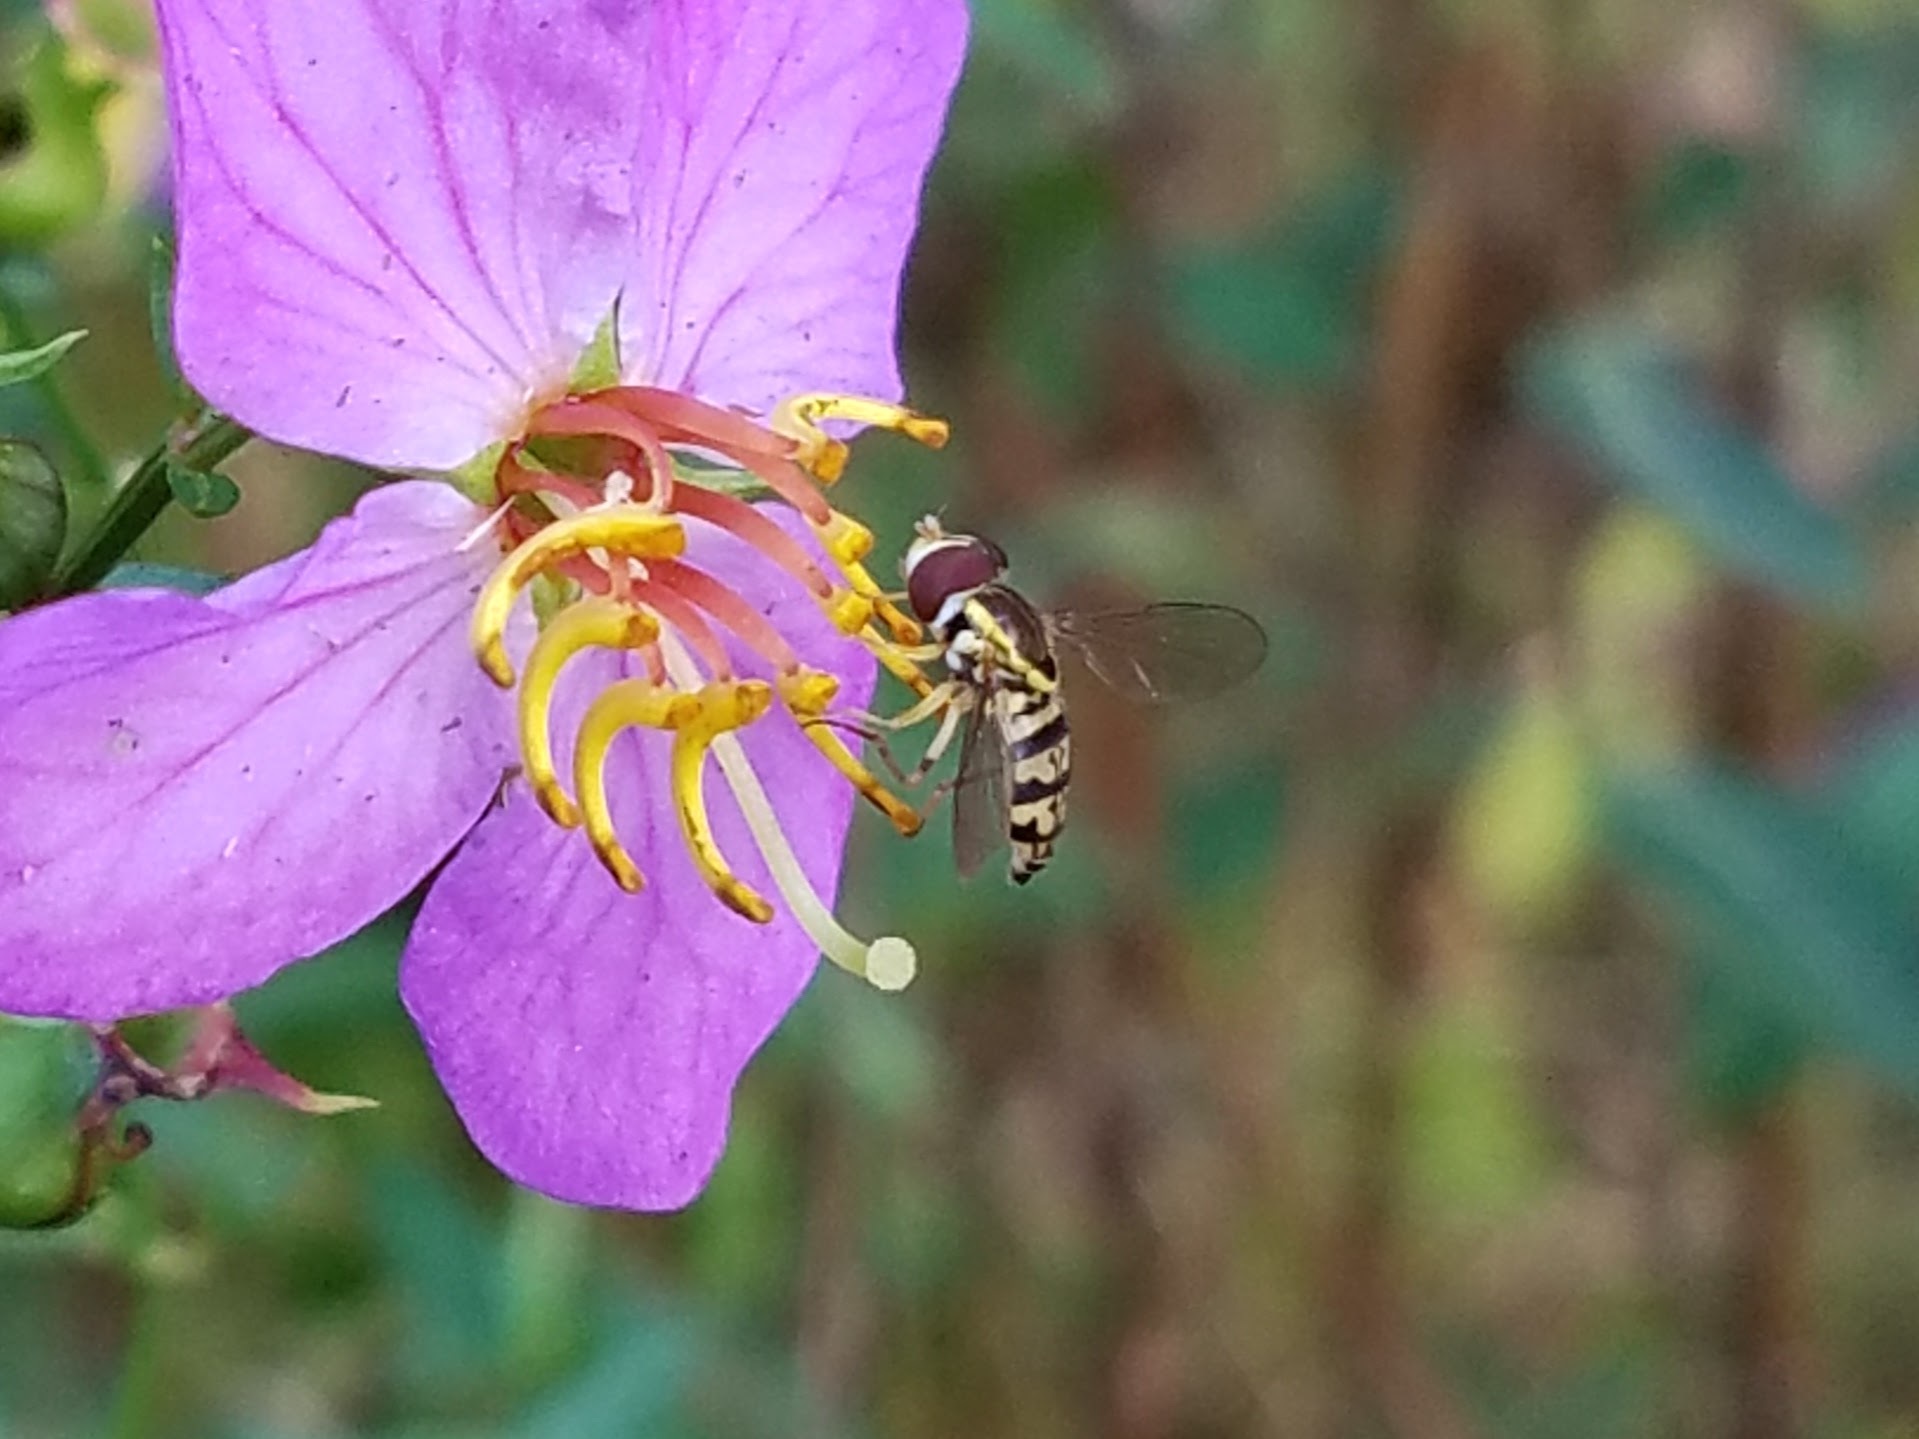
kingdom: Animalia
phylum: Arthropoda
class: Insecta
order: Diptera
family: Syrphidae
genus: Toxomerus
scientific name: Toxomerus geminatus
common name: Eastern calligrapher
